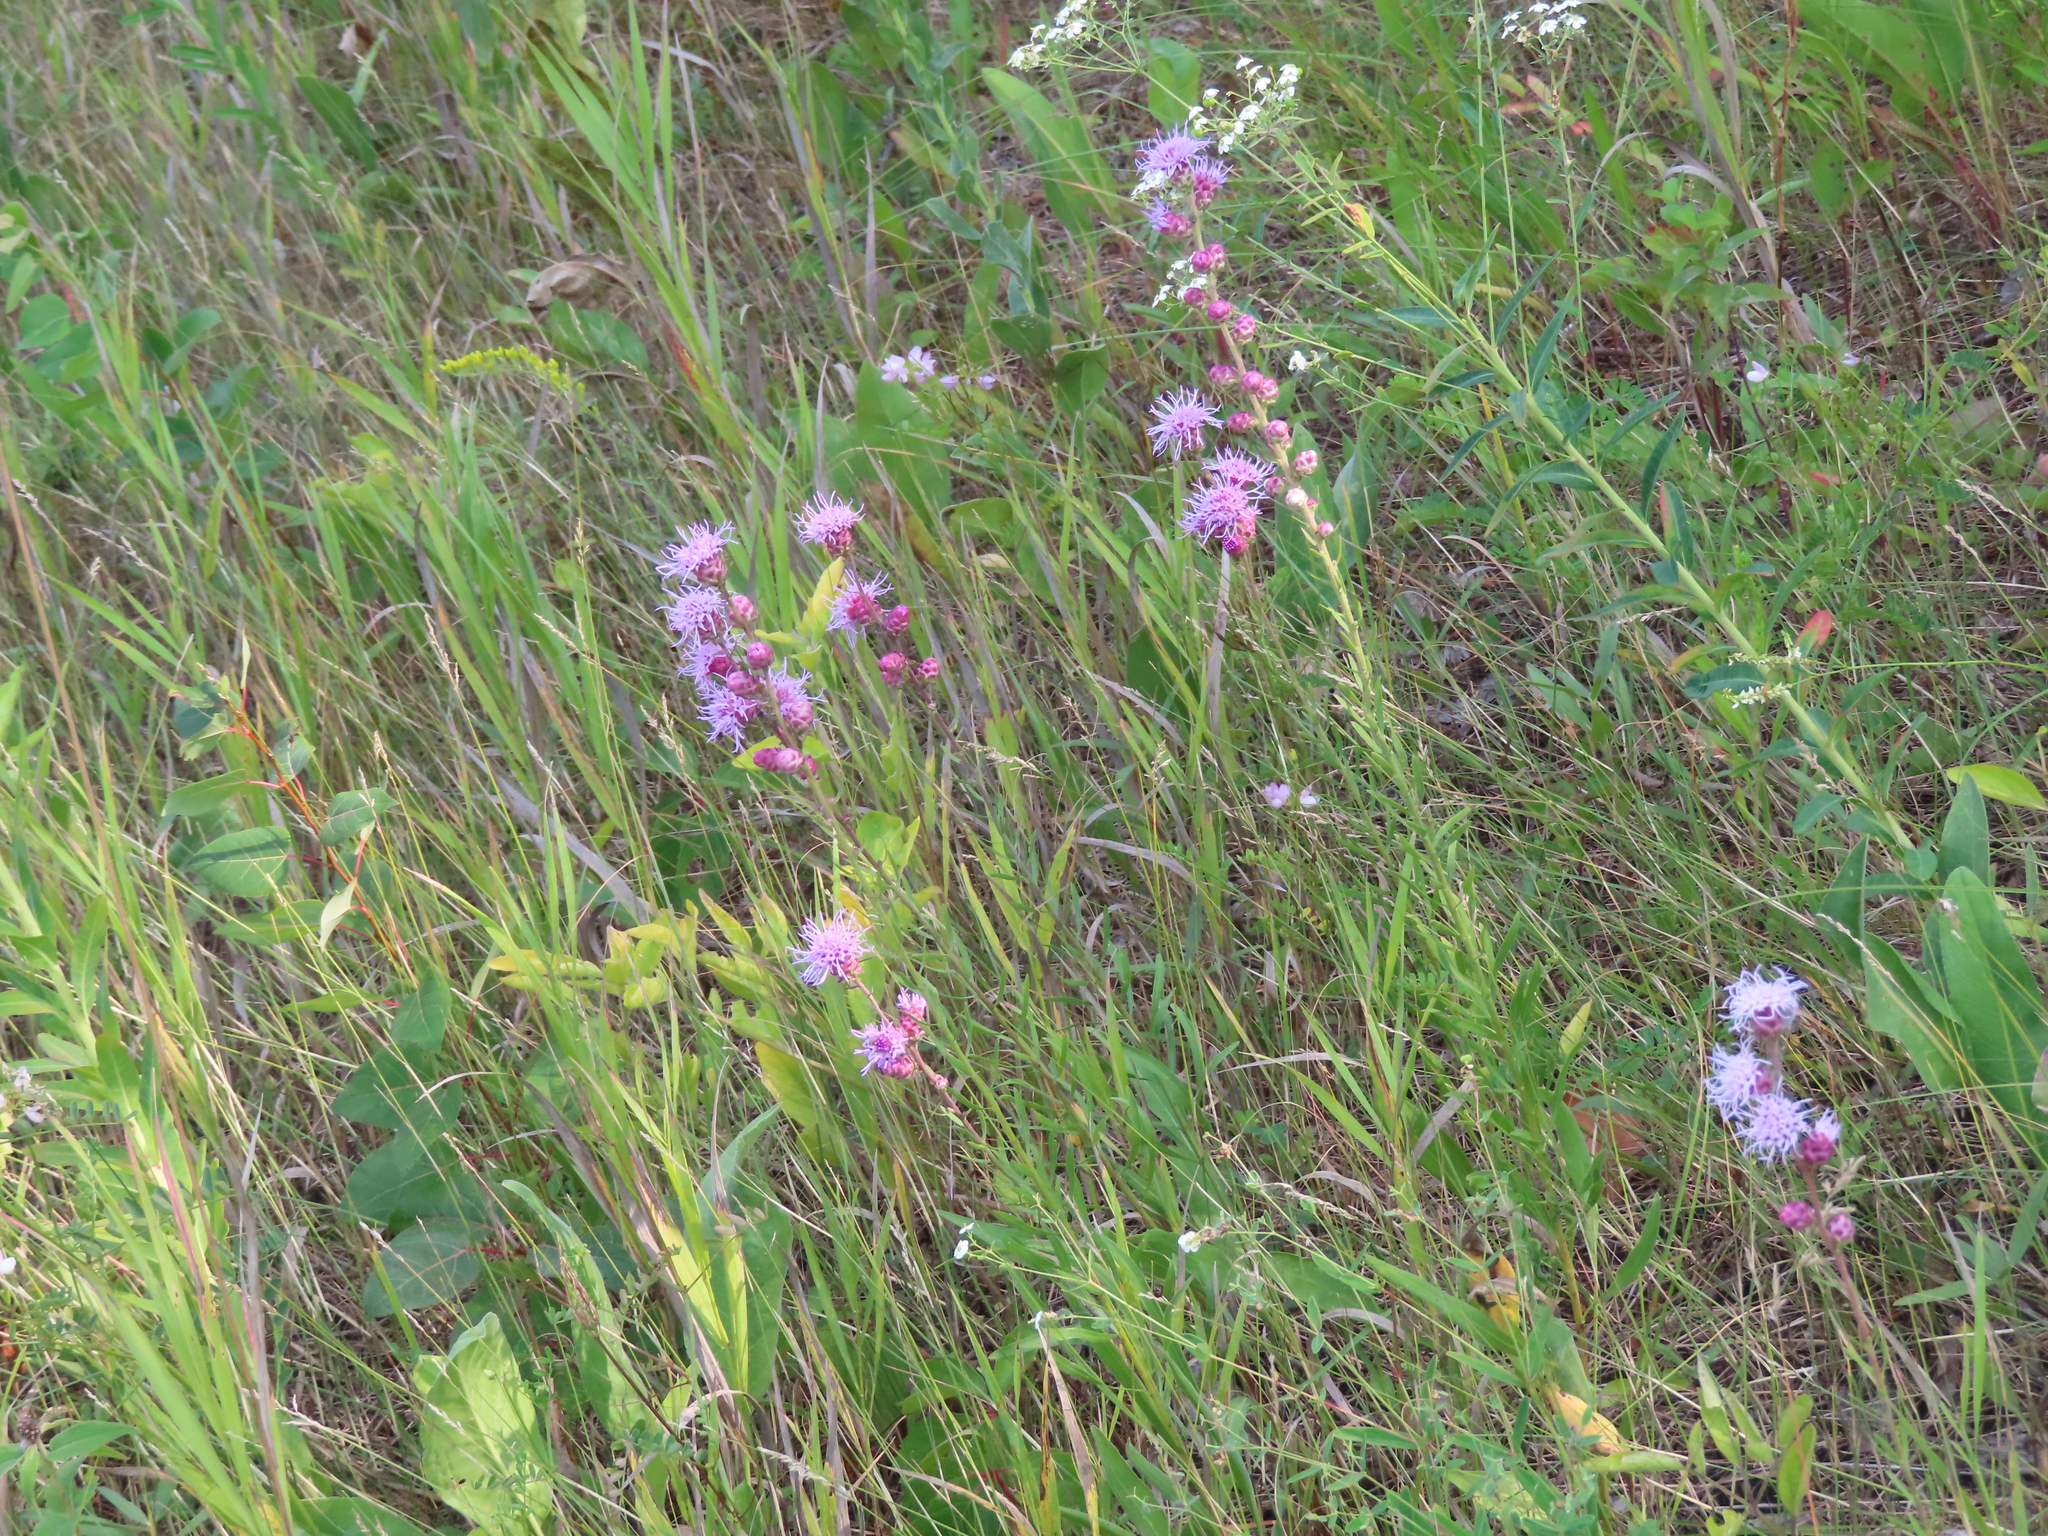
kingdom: Plantae
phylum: Tracheophyta
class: Magnoliopsida
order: Asterales
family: Asteraceae
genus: Liatris
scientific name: Liatris aspera
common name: Lacerate blazing-star
